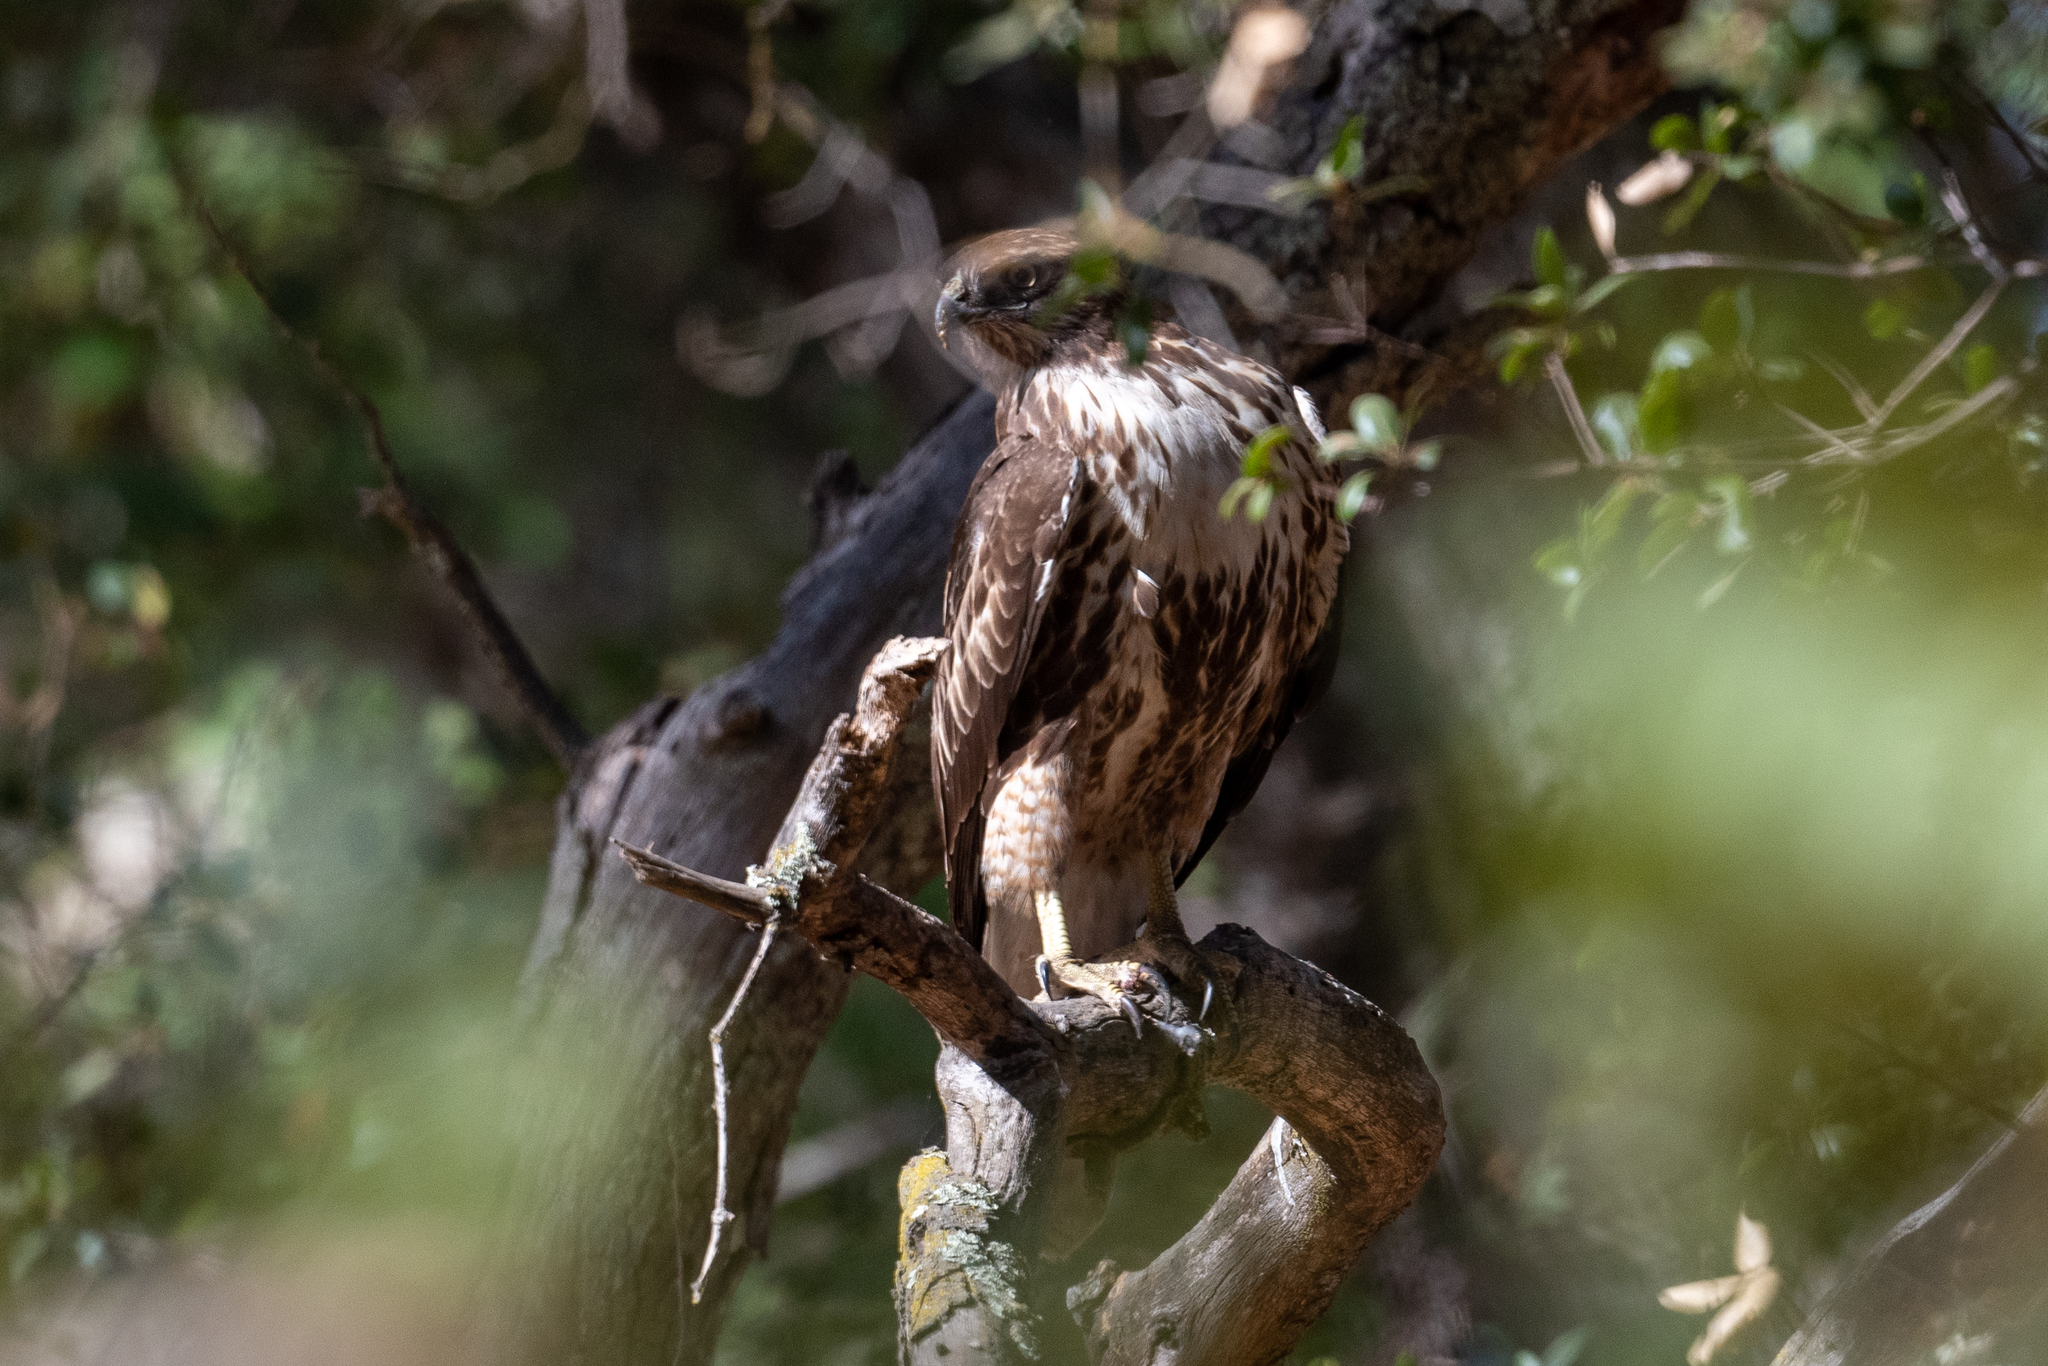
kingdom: Animalia
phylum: Chordata
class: Aves
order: Accipitriformes
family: Accipitridae
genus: Buteo
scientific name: Buteo jamaicensis
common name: Red-tailed hawk
